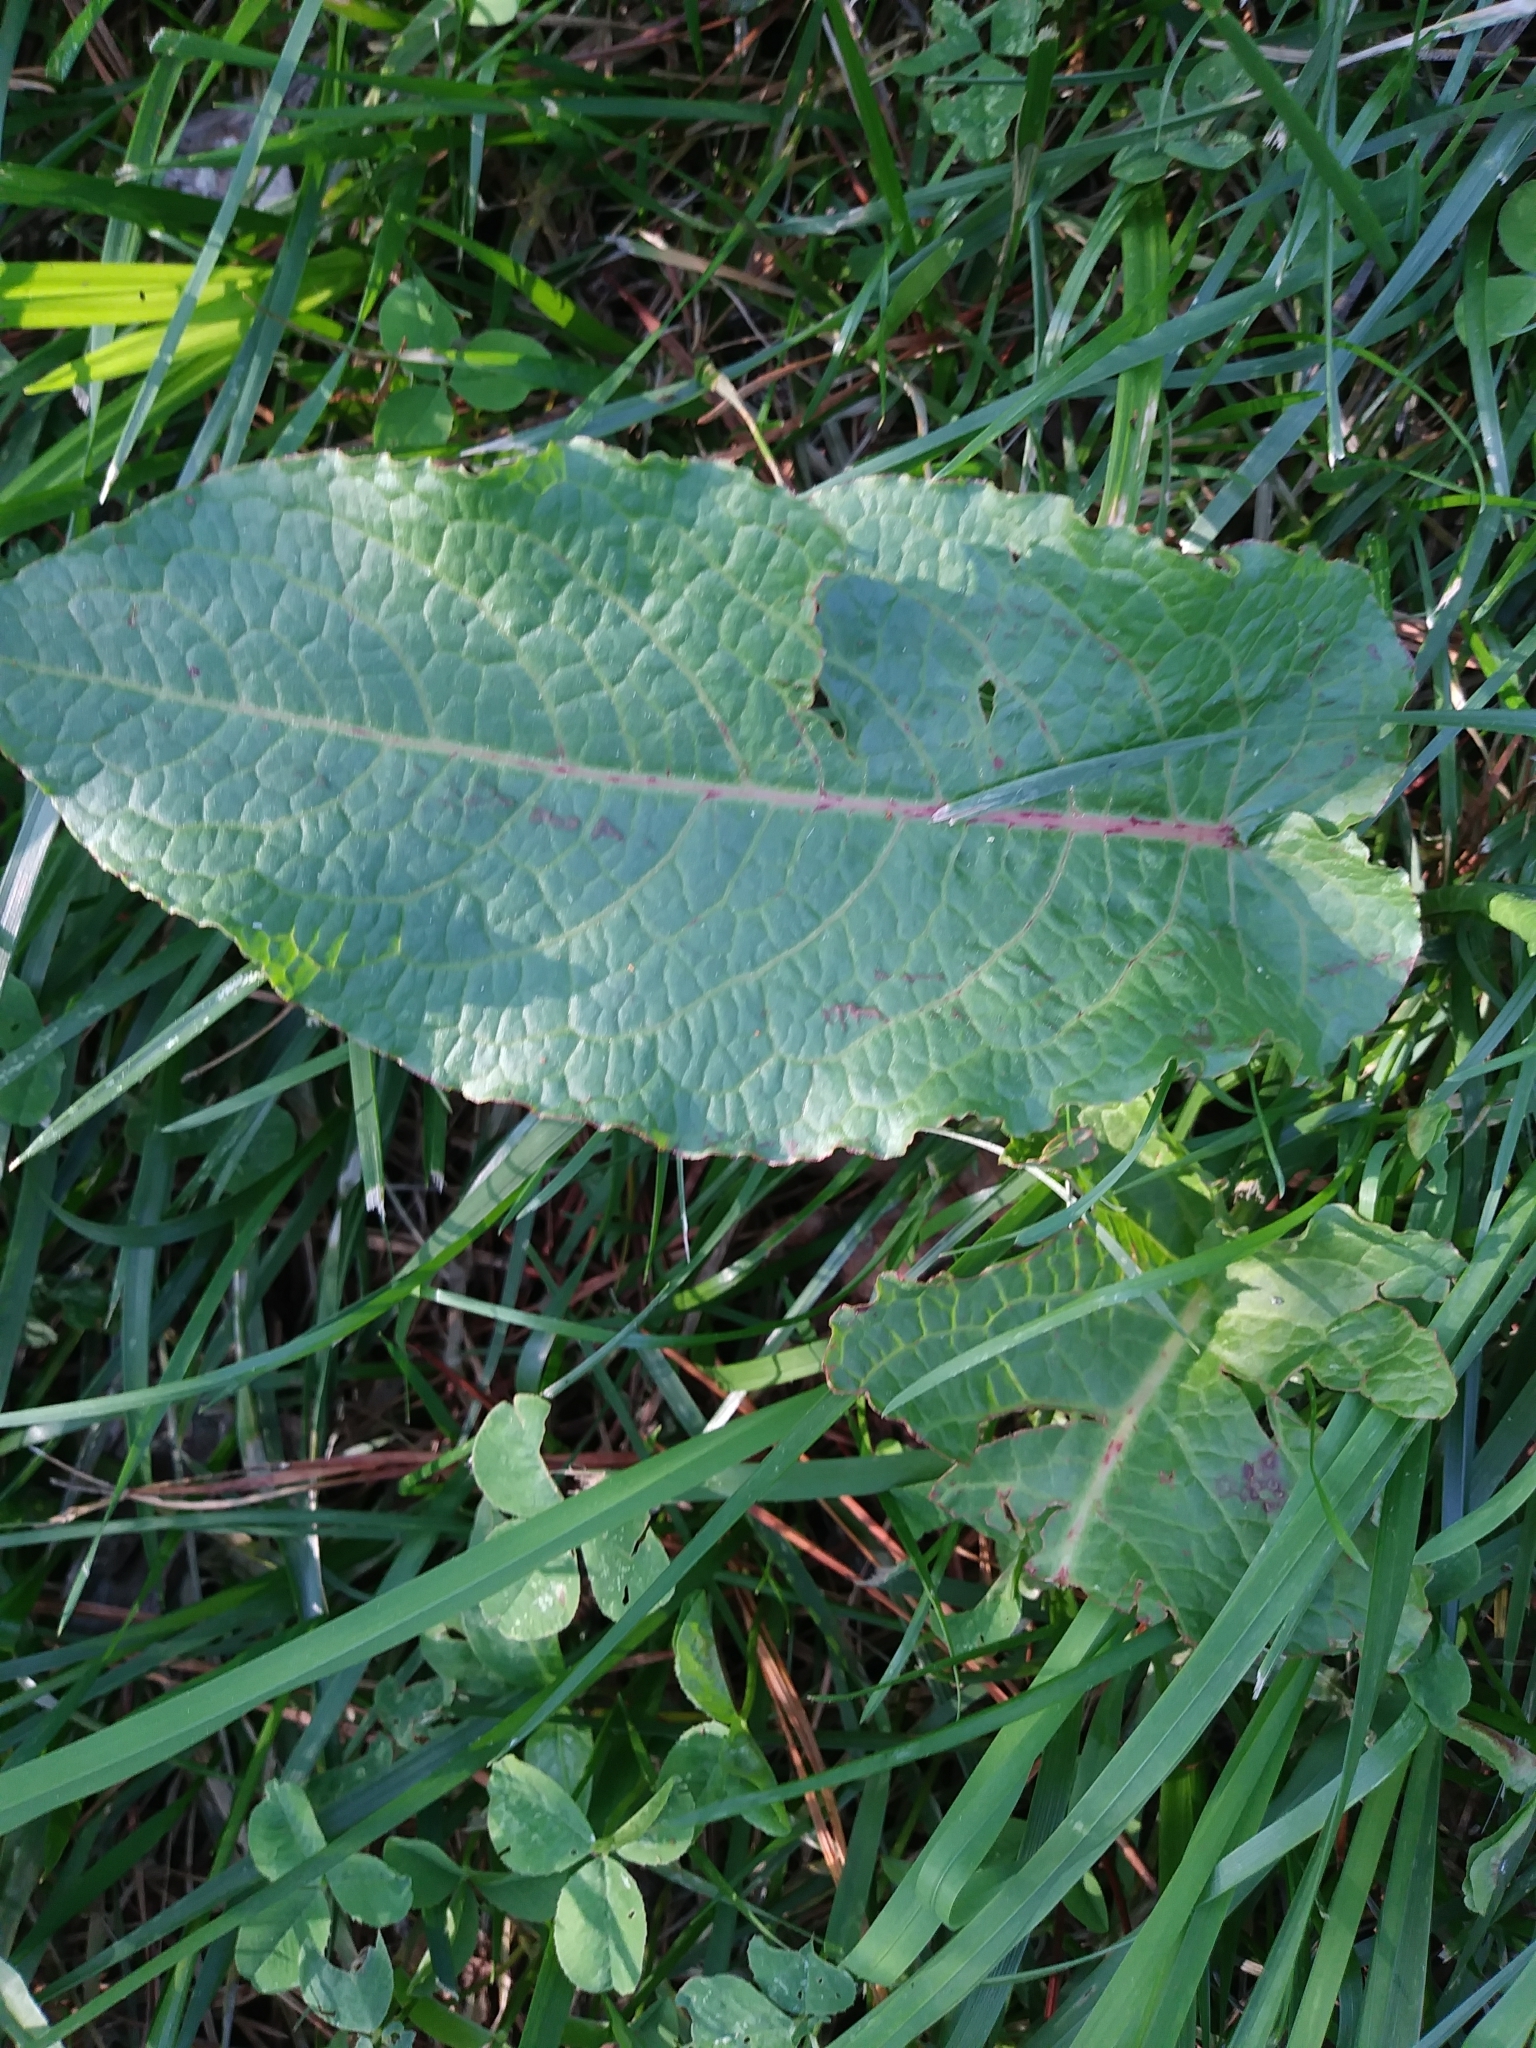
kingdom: Plantae
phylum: Tracheophyta
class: Magnoliopsida
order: Caryophyllales
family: Polygonaceae
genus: Rumex
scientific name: Rumex obtusifolius
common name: Bitter dock
